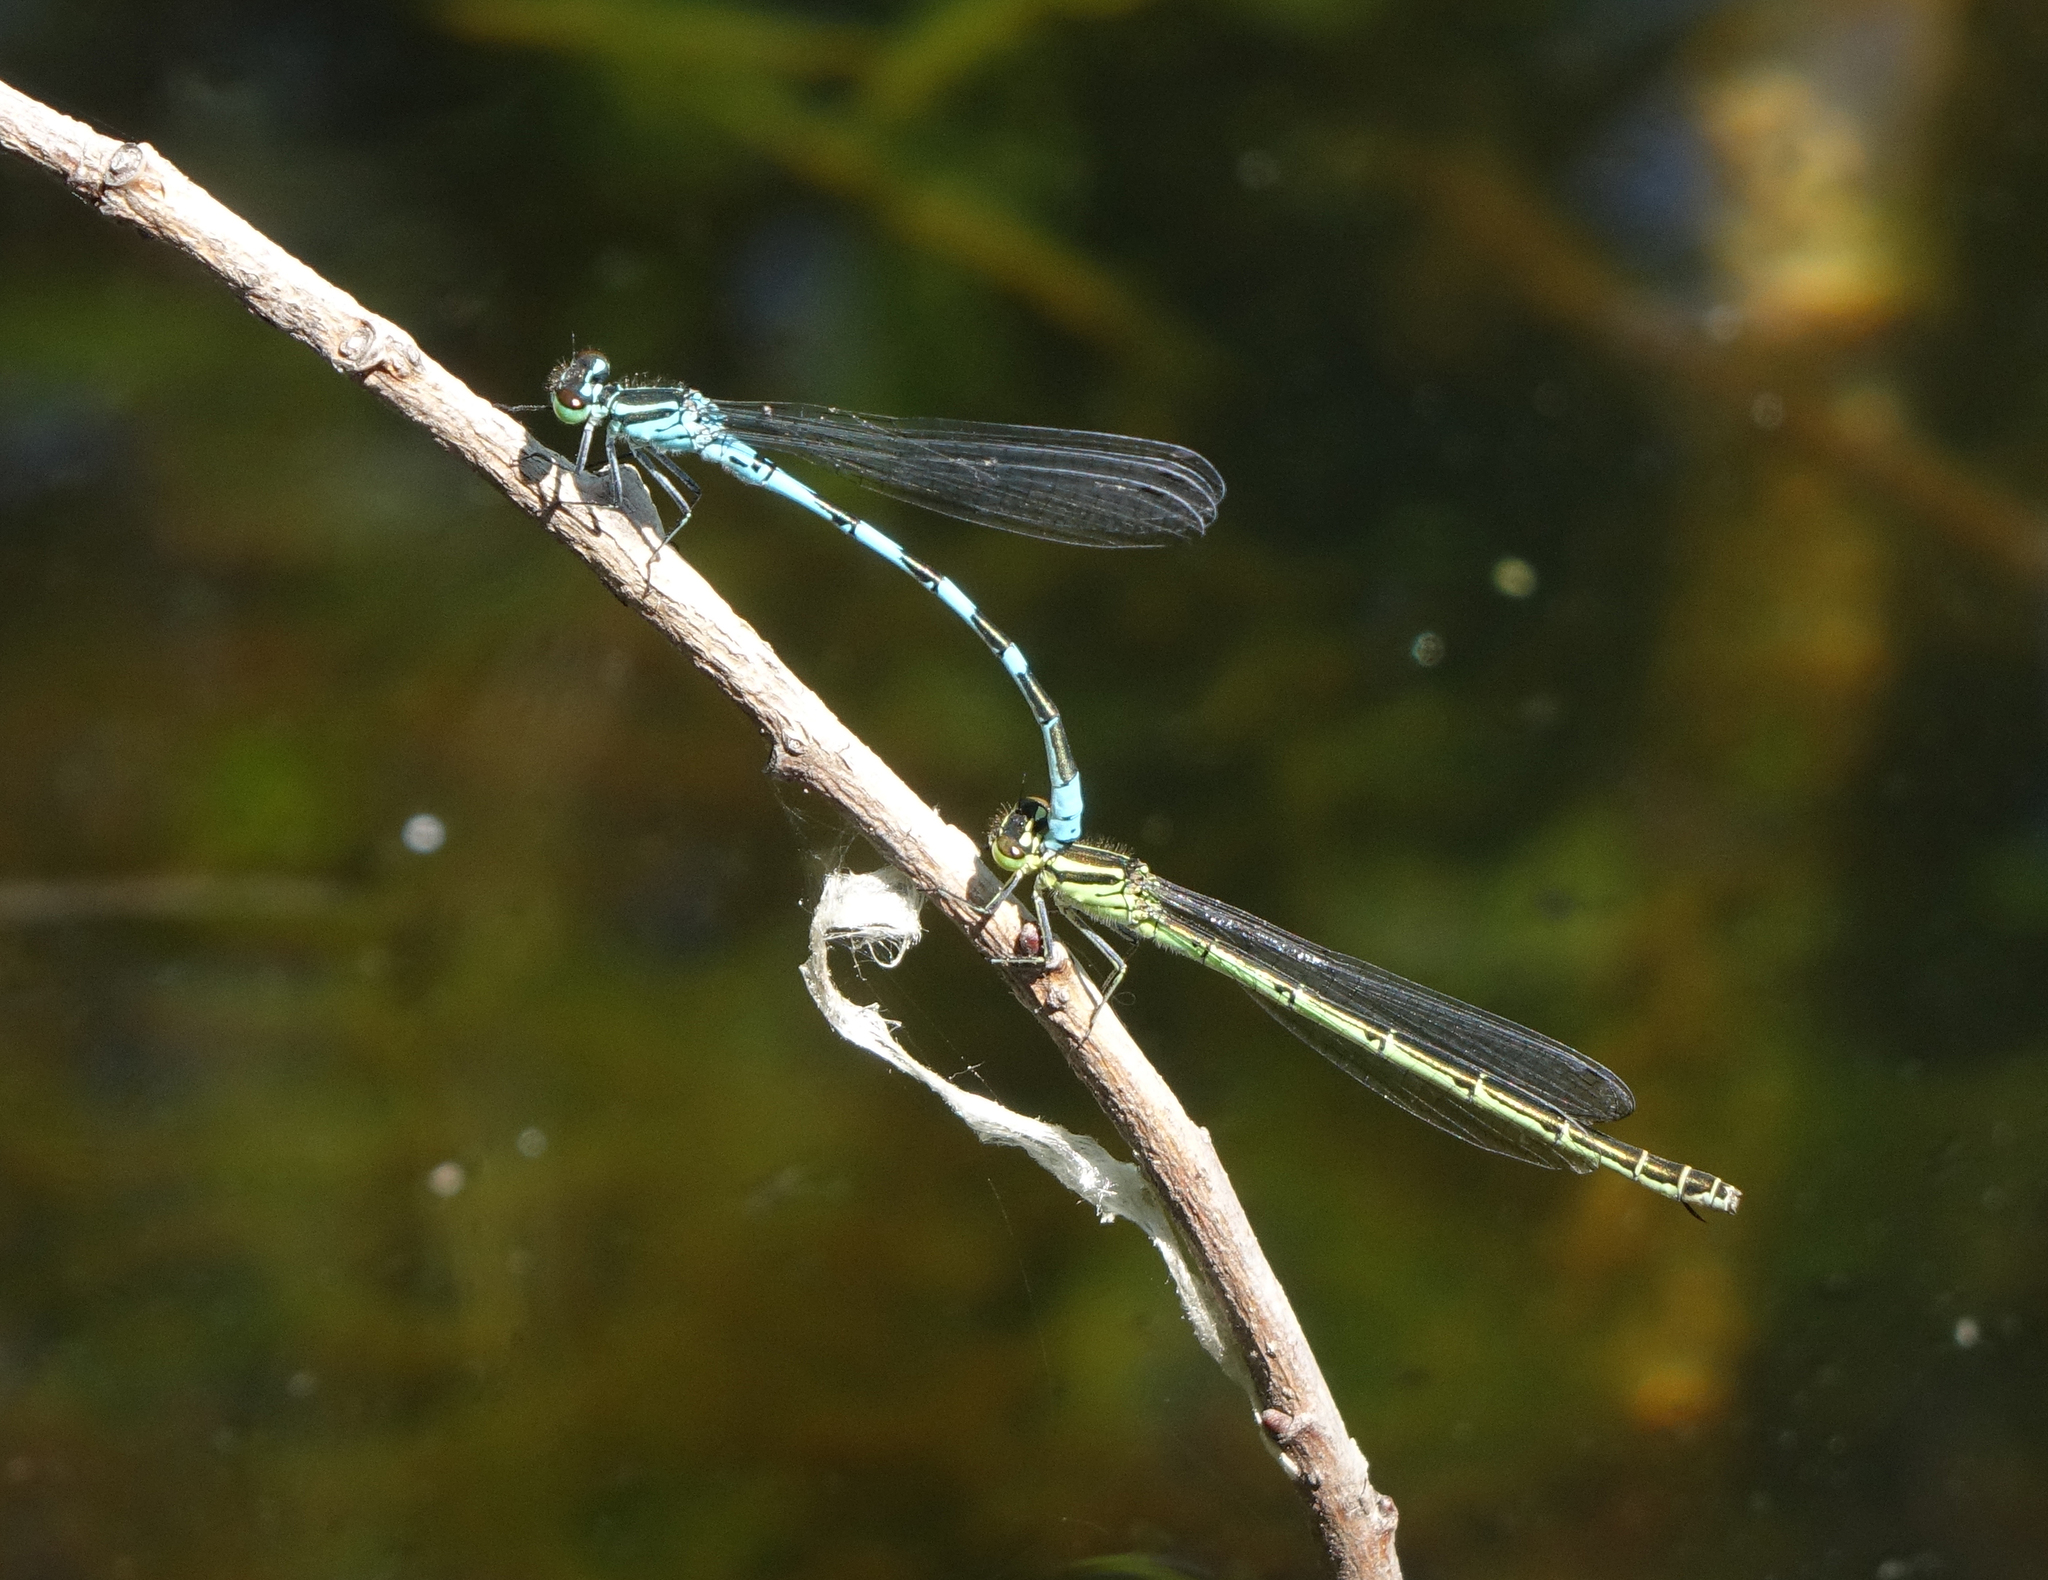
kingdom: Animalia
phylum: Arthropoda
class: Insecta
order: Odonata
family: Coenagrionidae
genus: Coenagrion
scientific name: Coenagrion hastulatum
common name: Spearhead bluet
